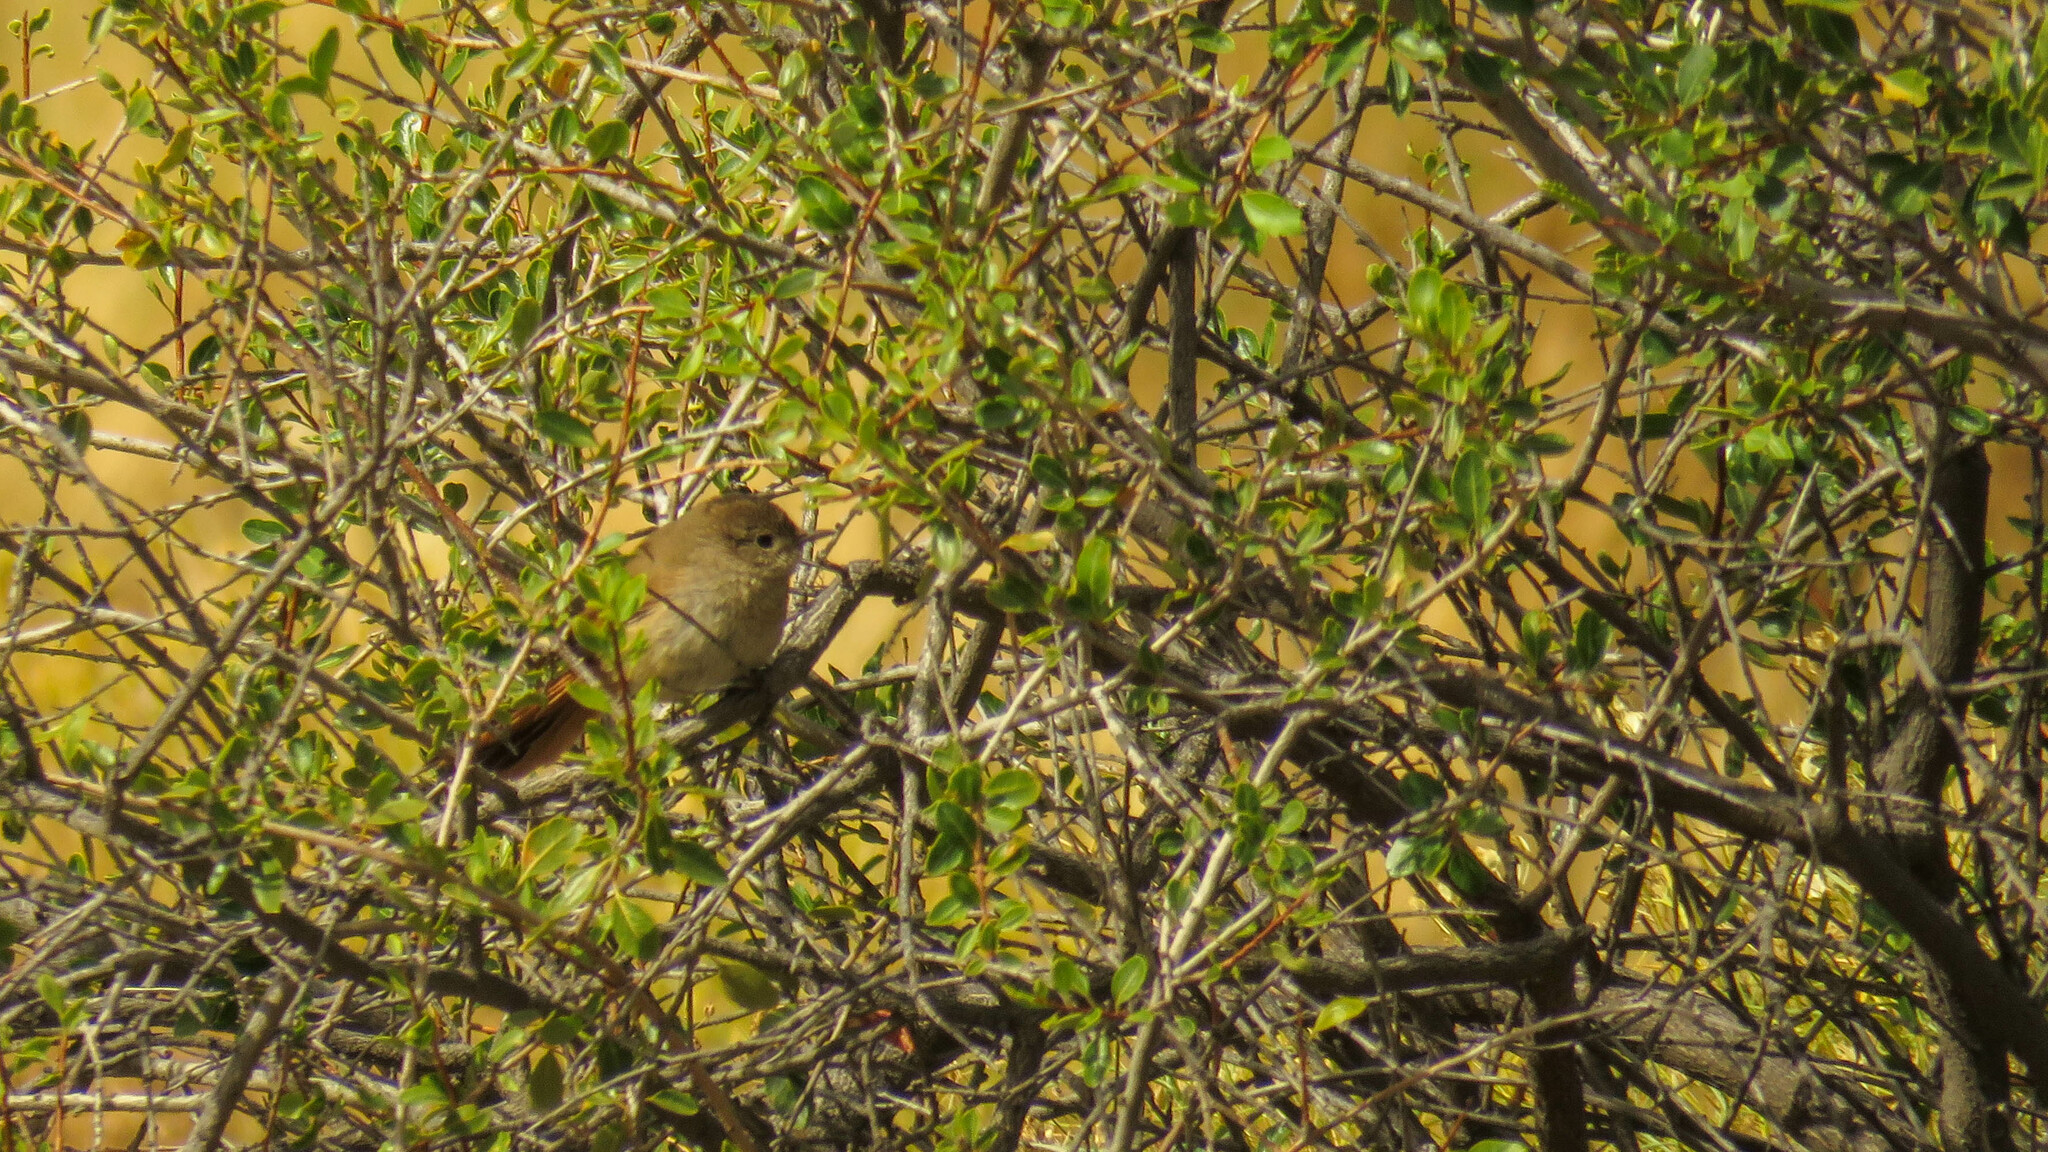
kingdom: Animalia
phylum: Chordata
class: Aves
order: Passeriformes
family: Furnariidae
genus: Asthenes
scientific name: Asthenes pyrrholeuca
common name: Sharp-billed canastero
